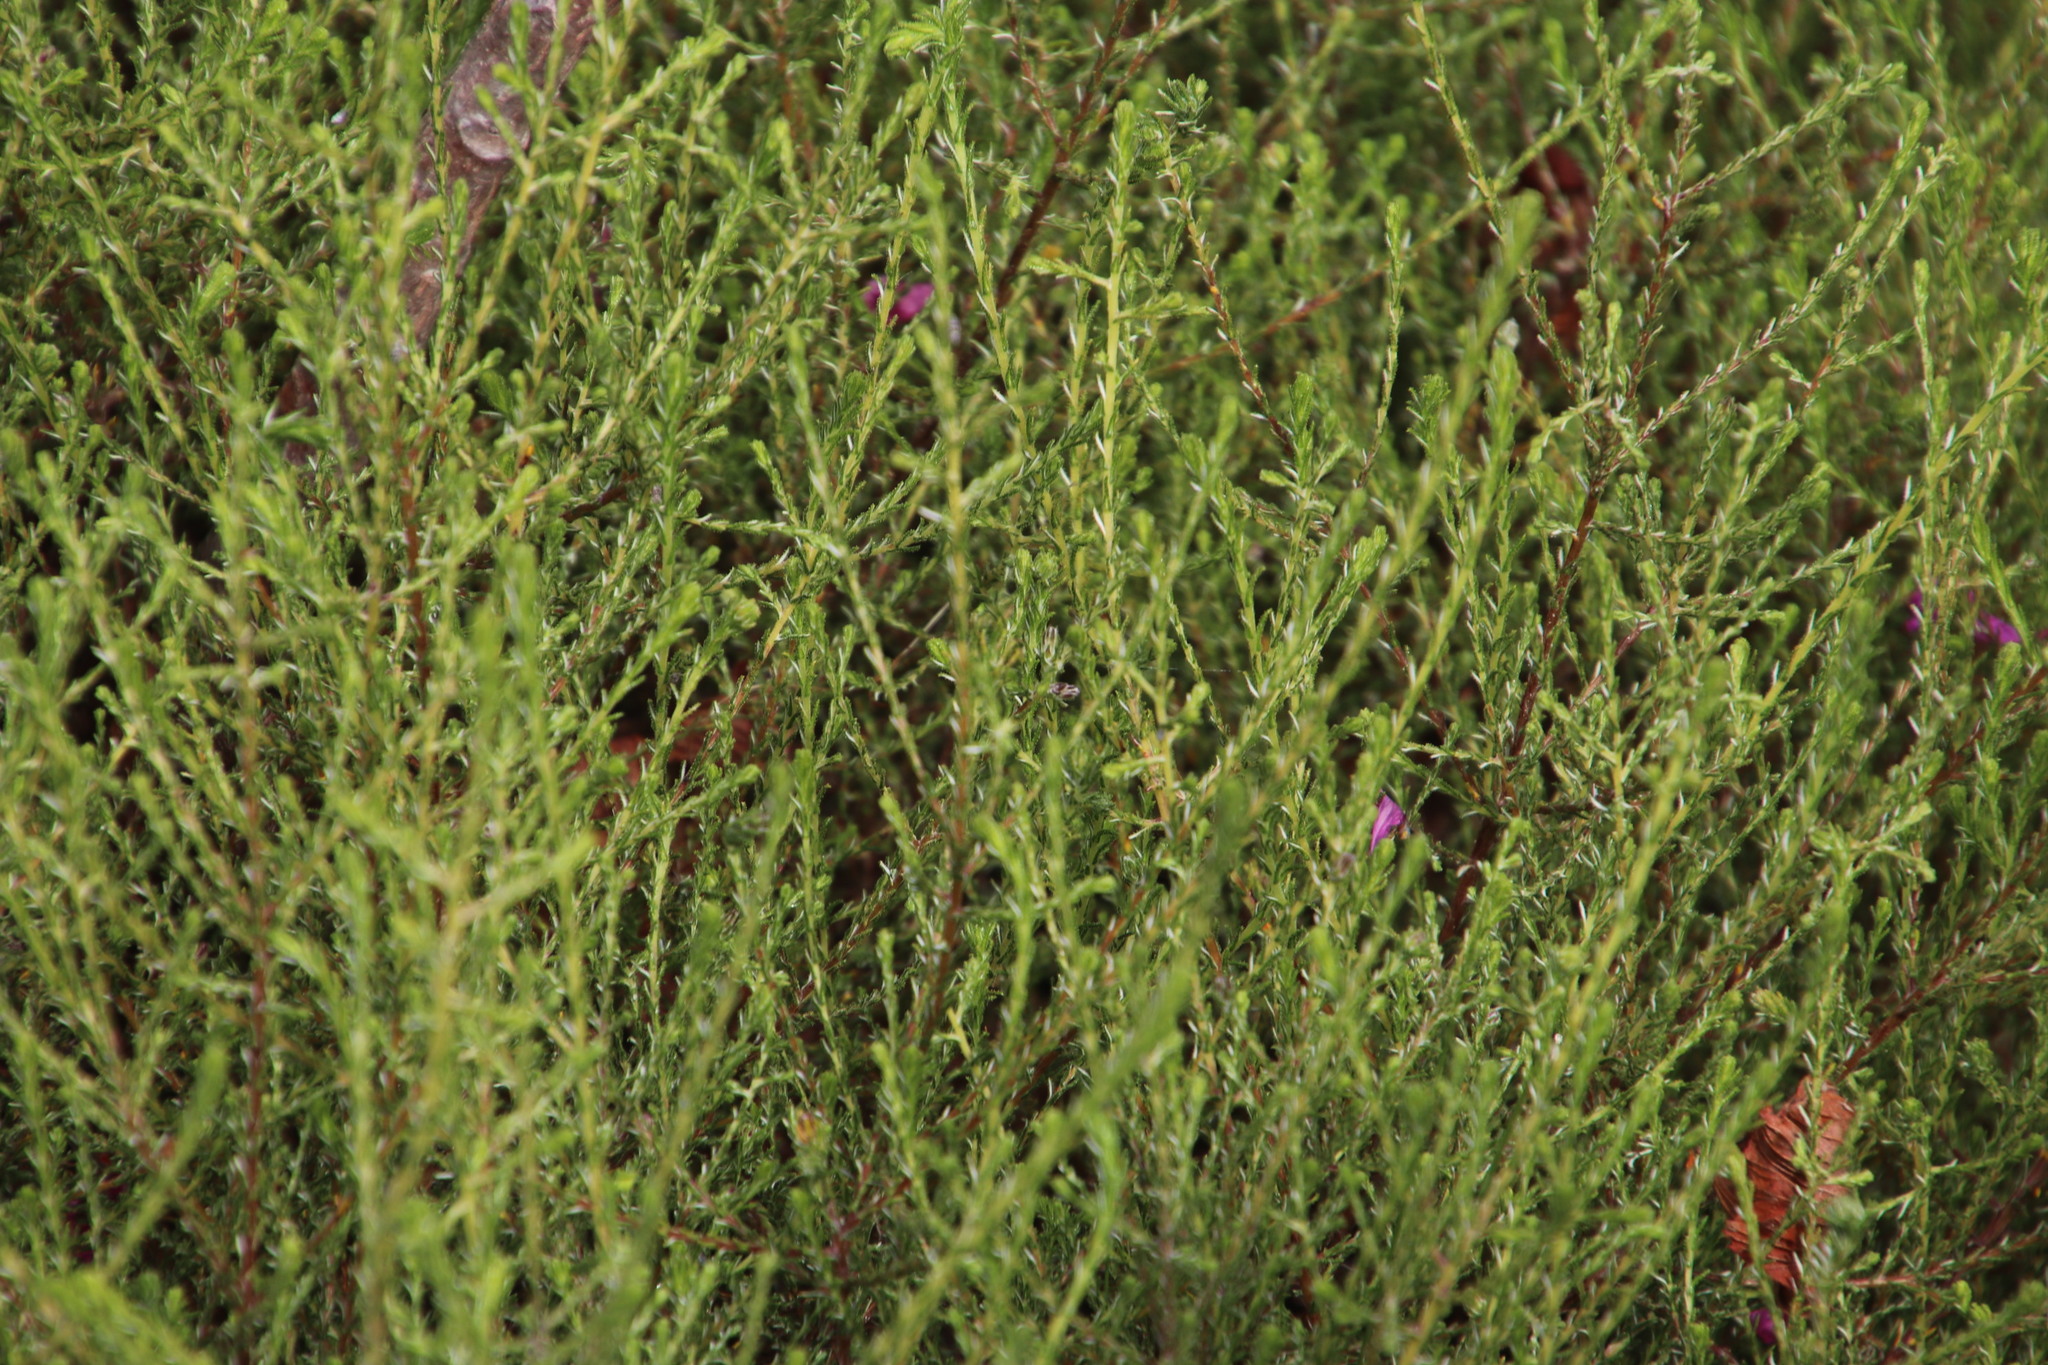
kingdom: Plantae
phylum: Tracheophyta
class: Magnoliopsida
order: Asterales
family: Asteraceae
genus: Myrovernix
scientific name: Myrovernix scaber
